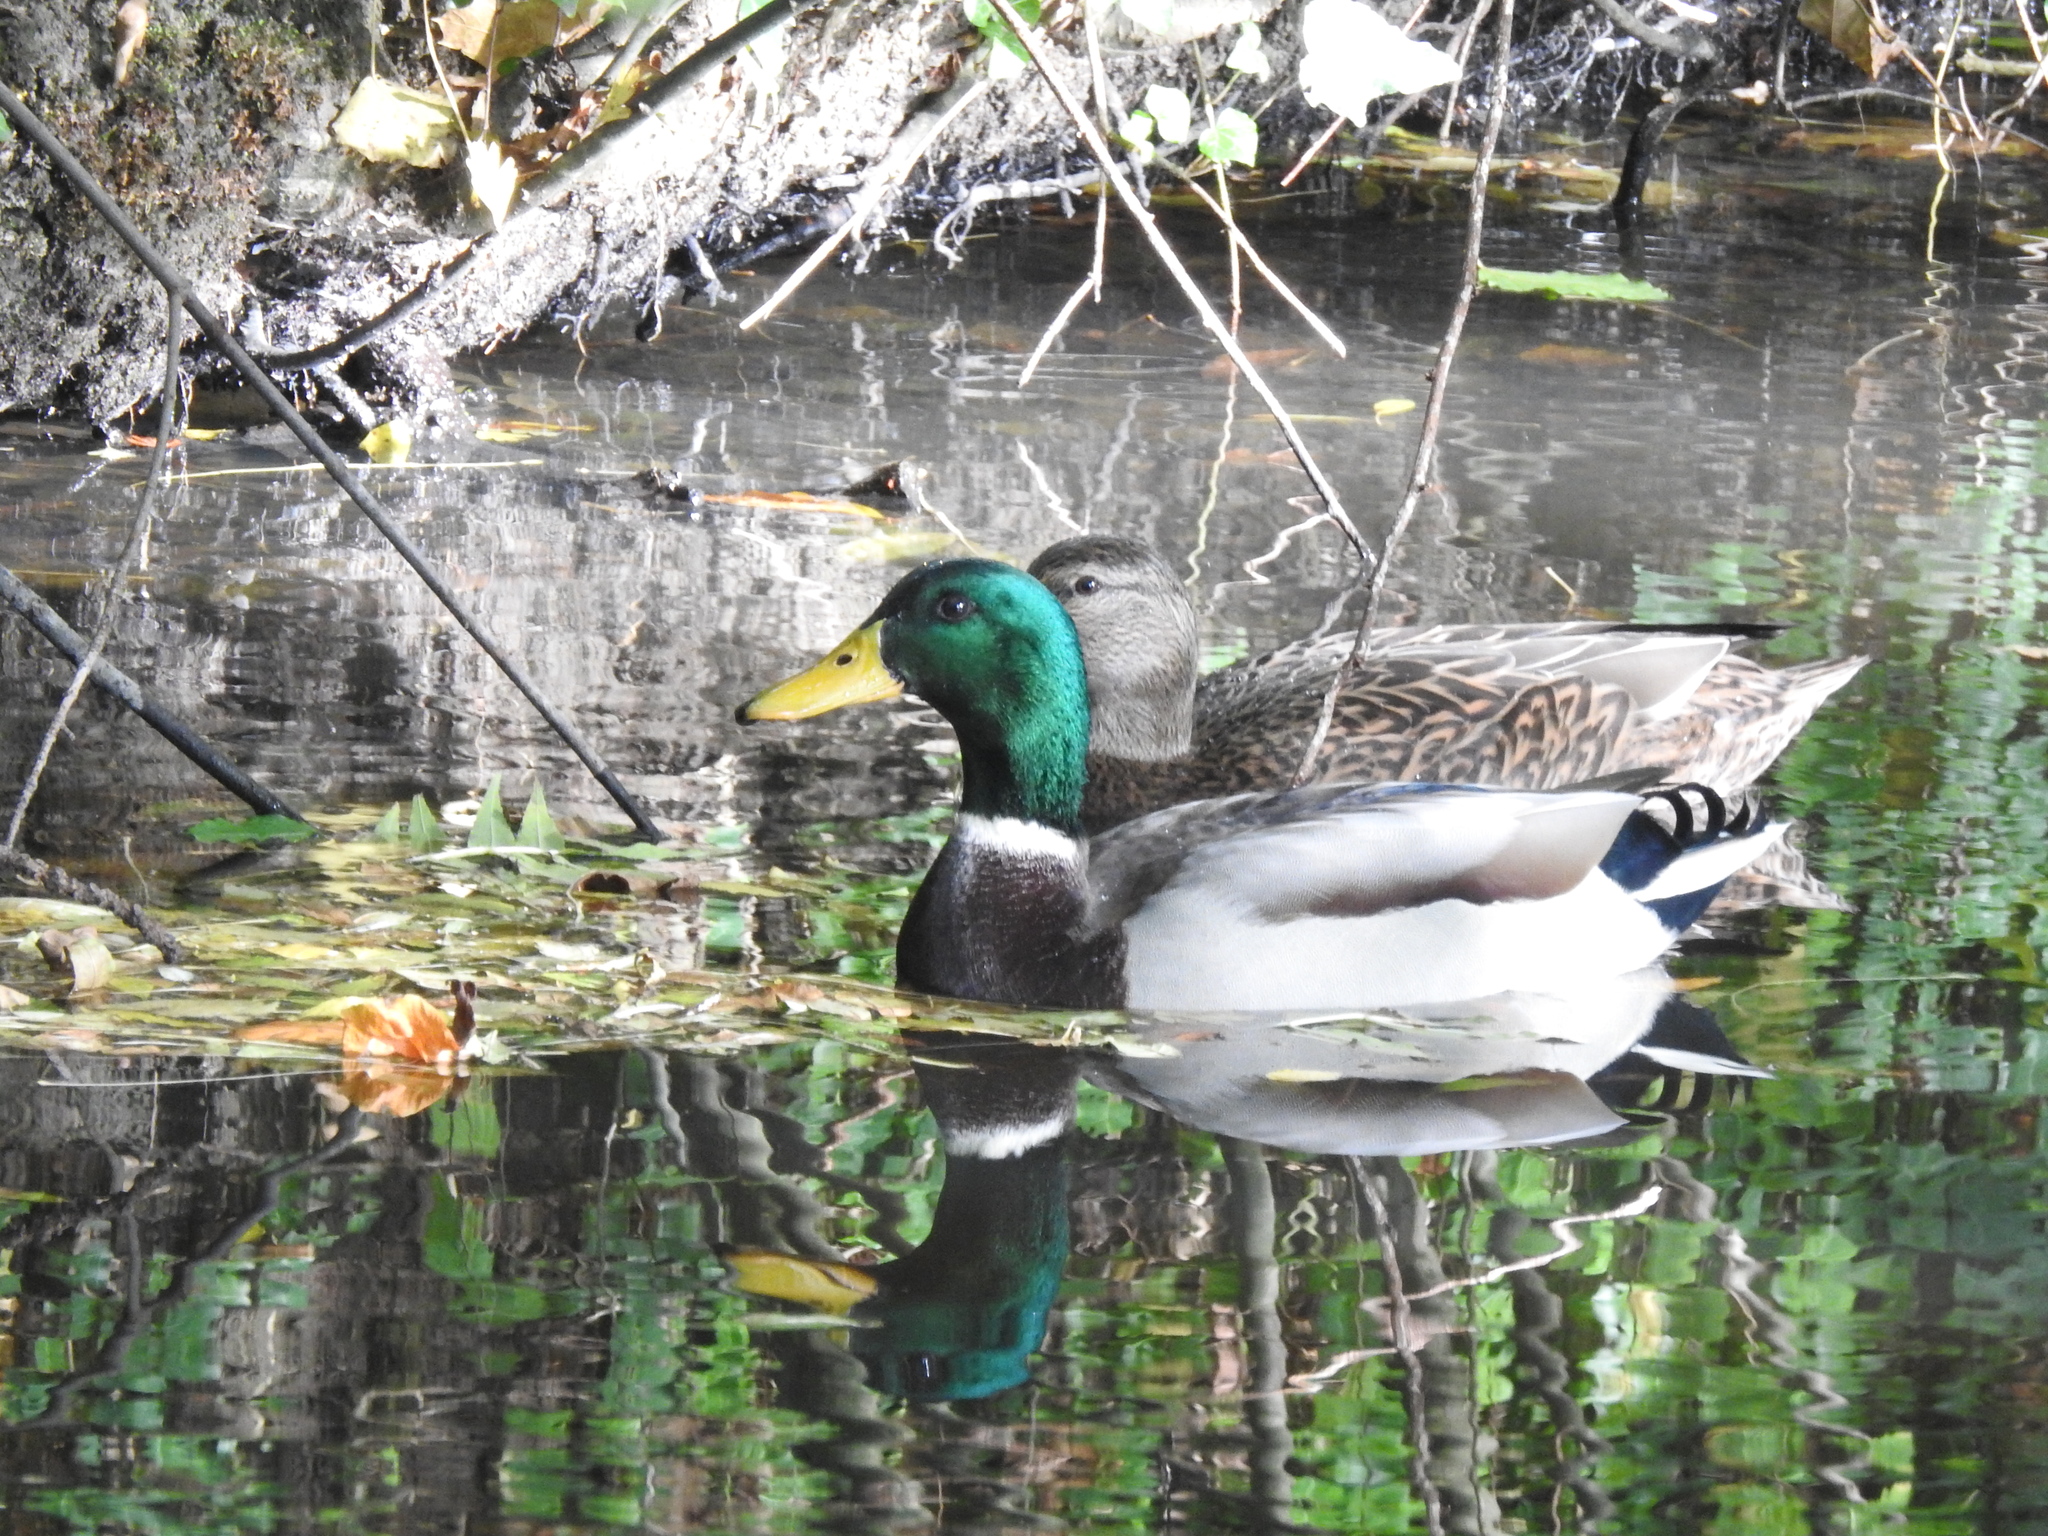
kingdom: Animalia
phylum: Chordata
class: Aves
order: Anseriformes
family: Anatidae
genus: Anas
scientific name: Anas platyrhynchos
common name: Mallard
